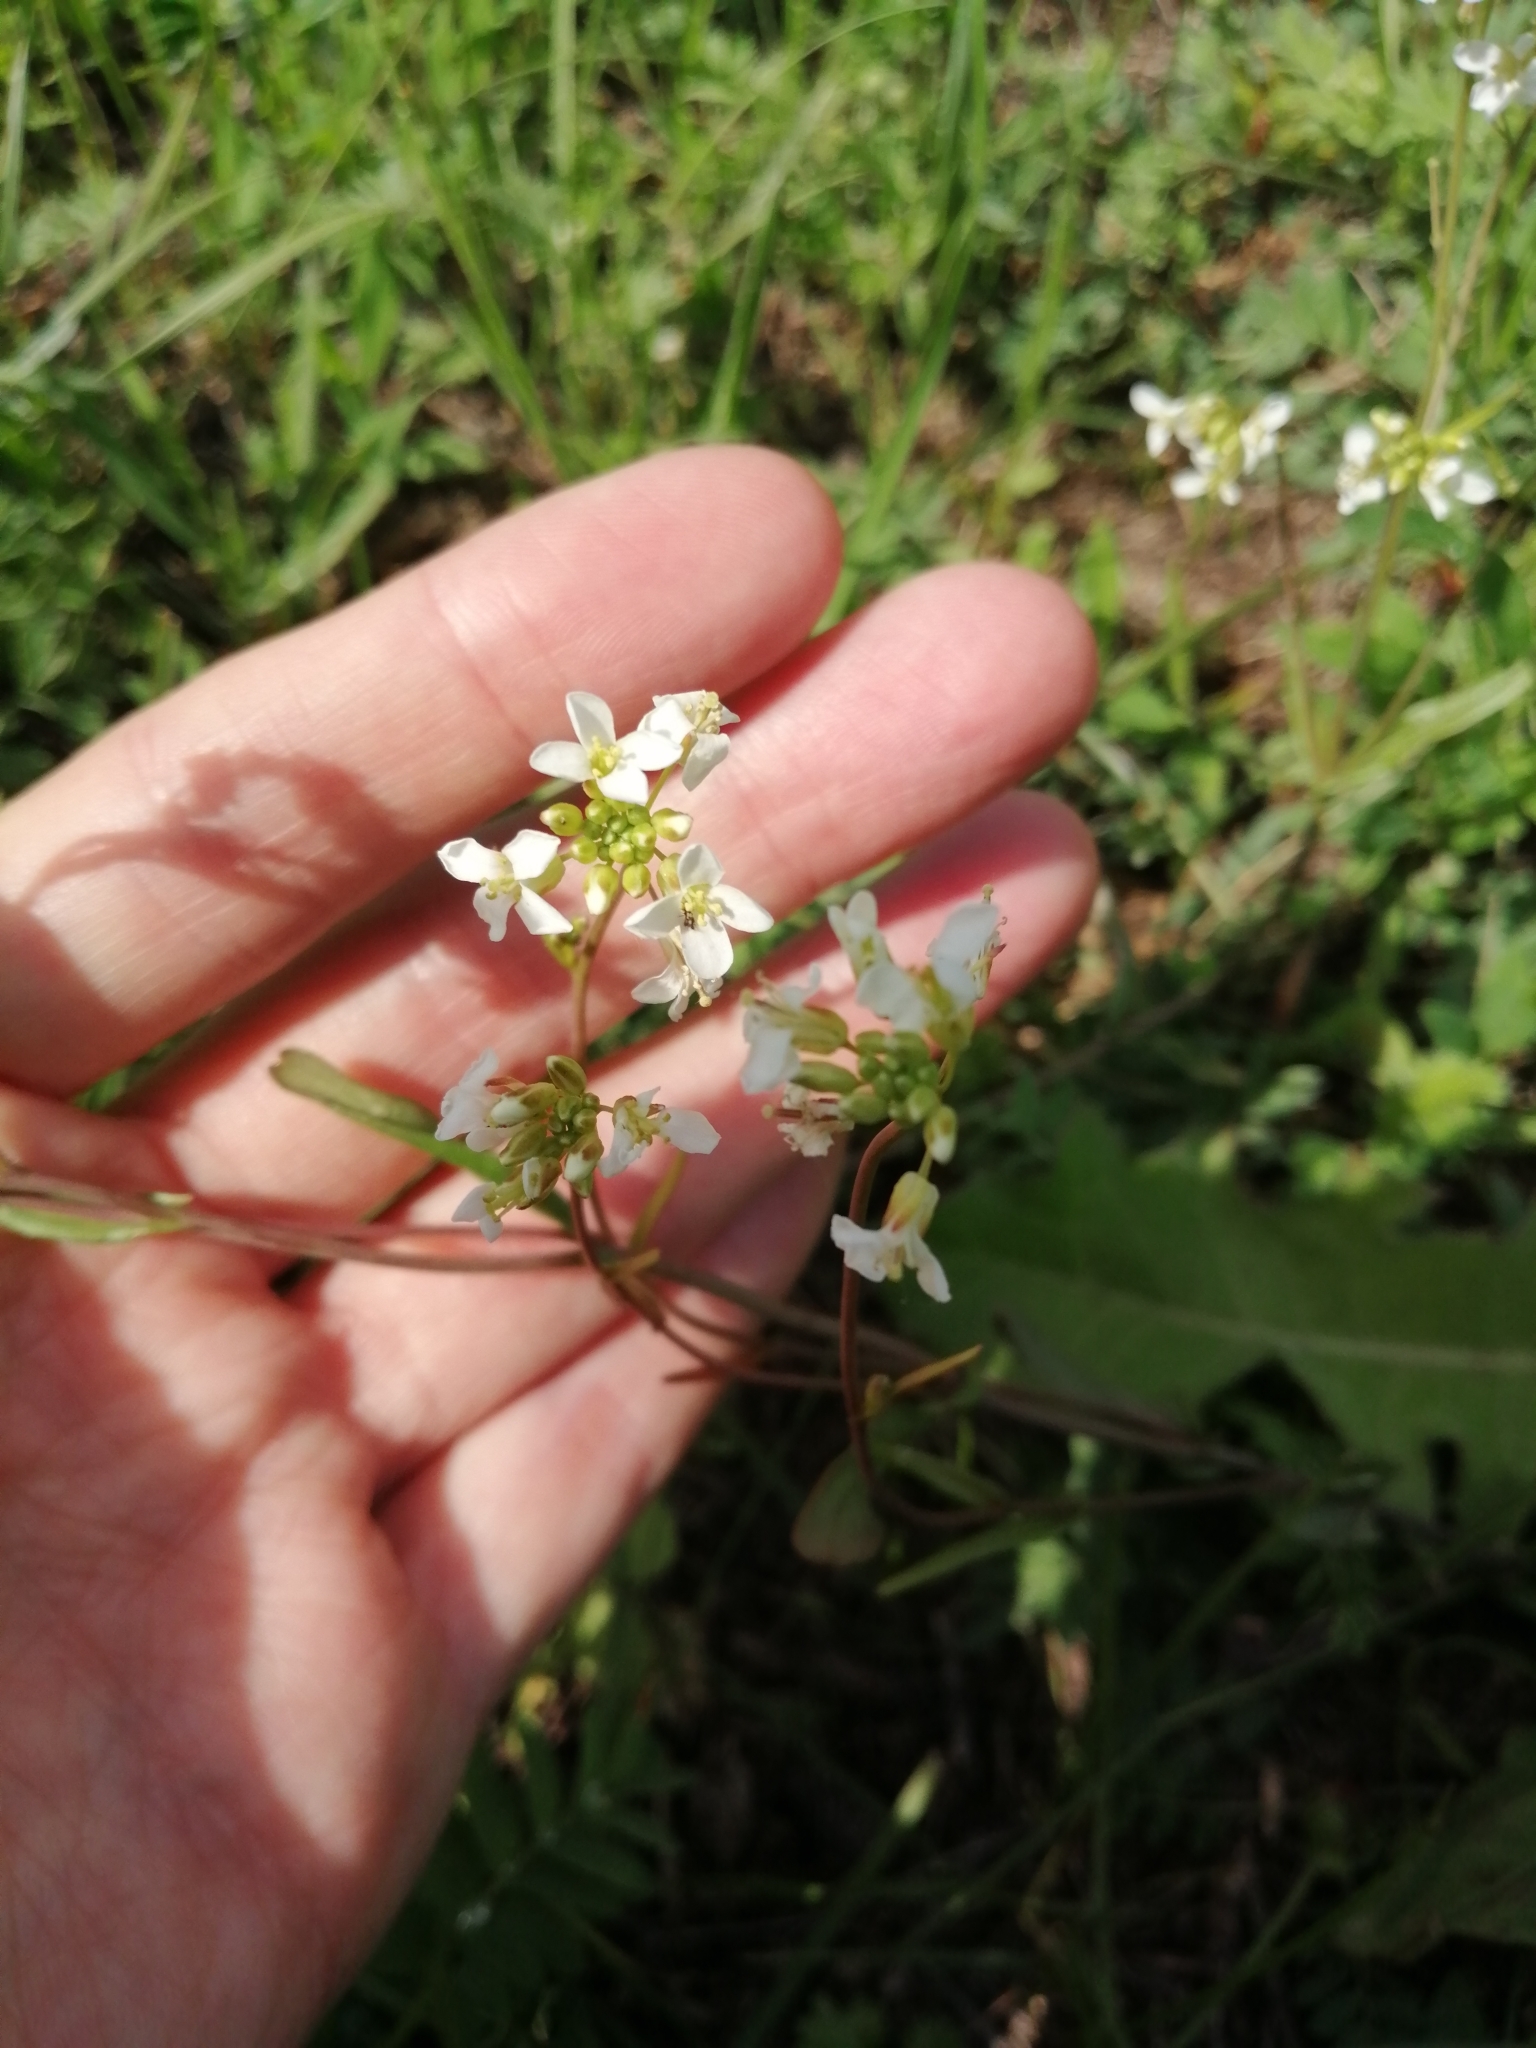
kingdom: Plantae
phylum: Tracheophyta
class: Magnoliopsida
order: Brassicales
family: Brassicaceae
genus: Pseudoarabidopsis
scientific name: Pseudoarabidopsis toxophylla
